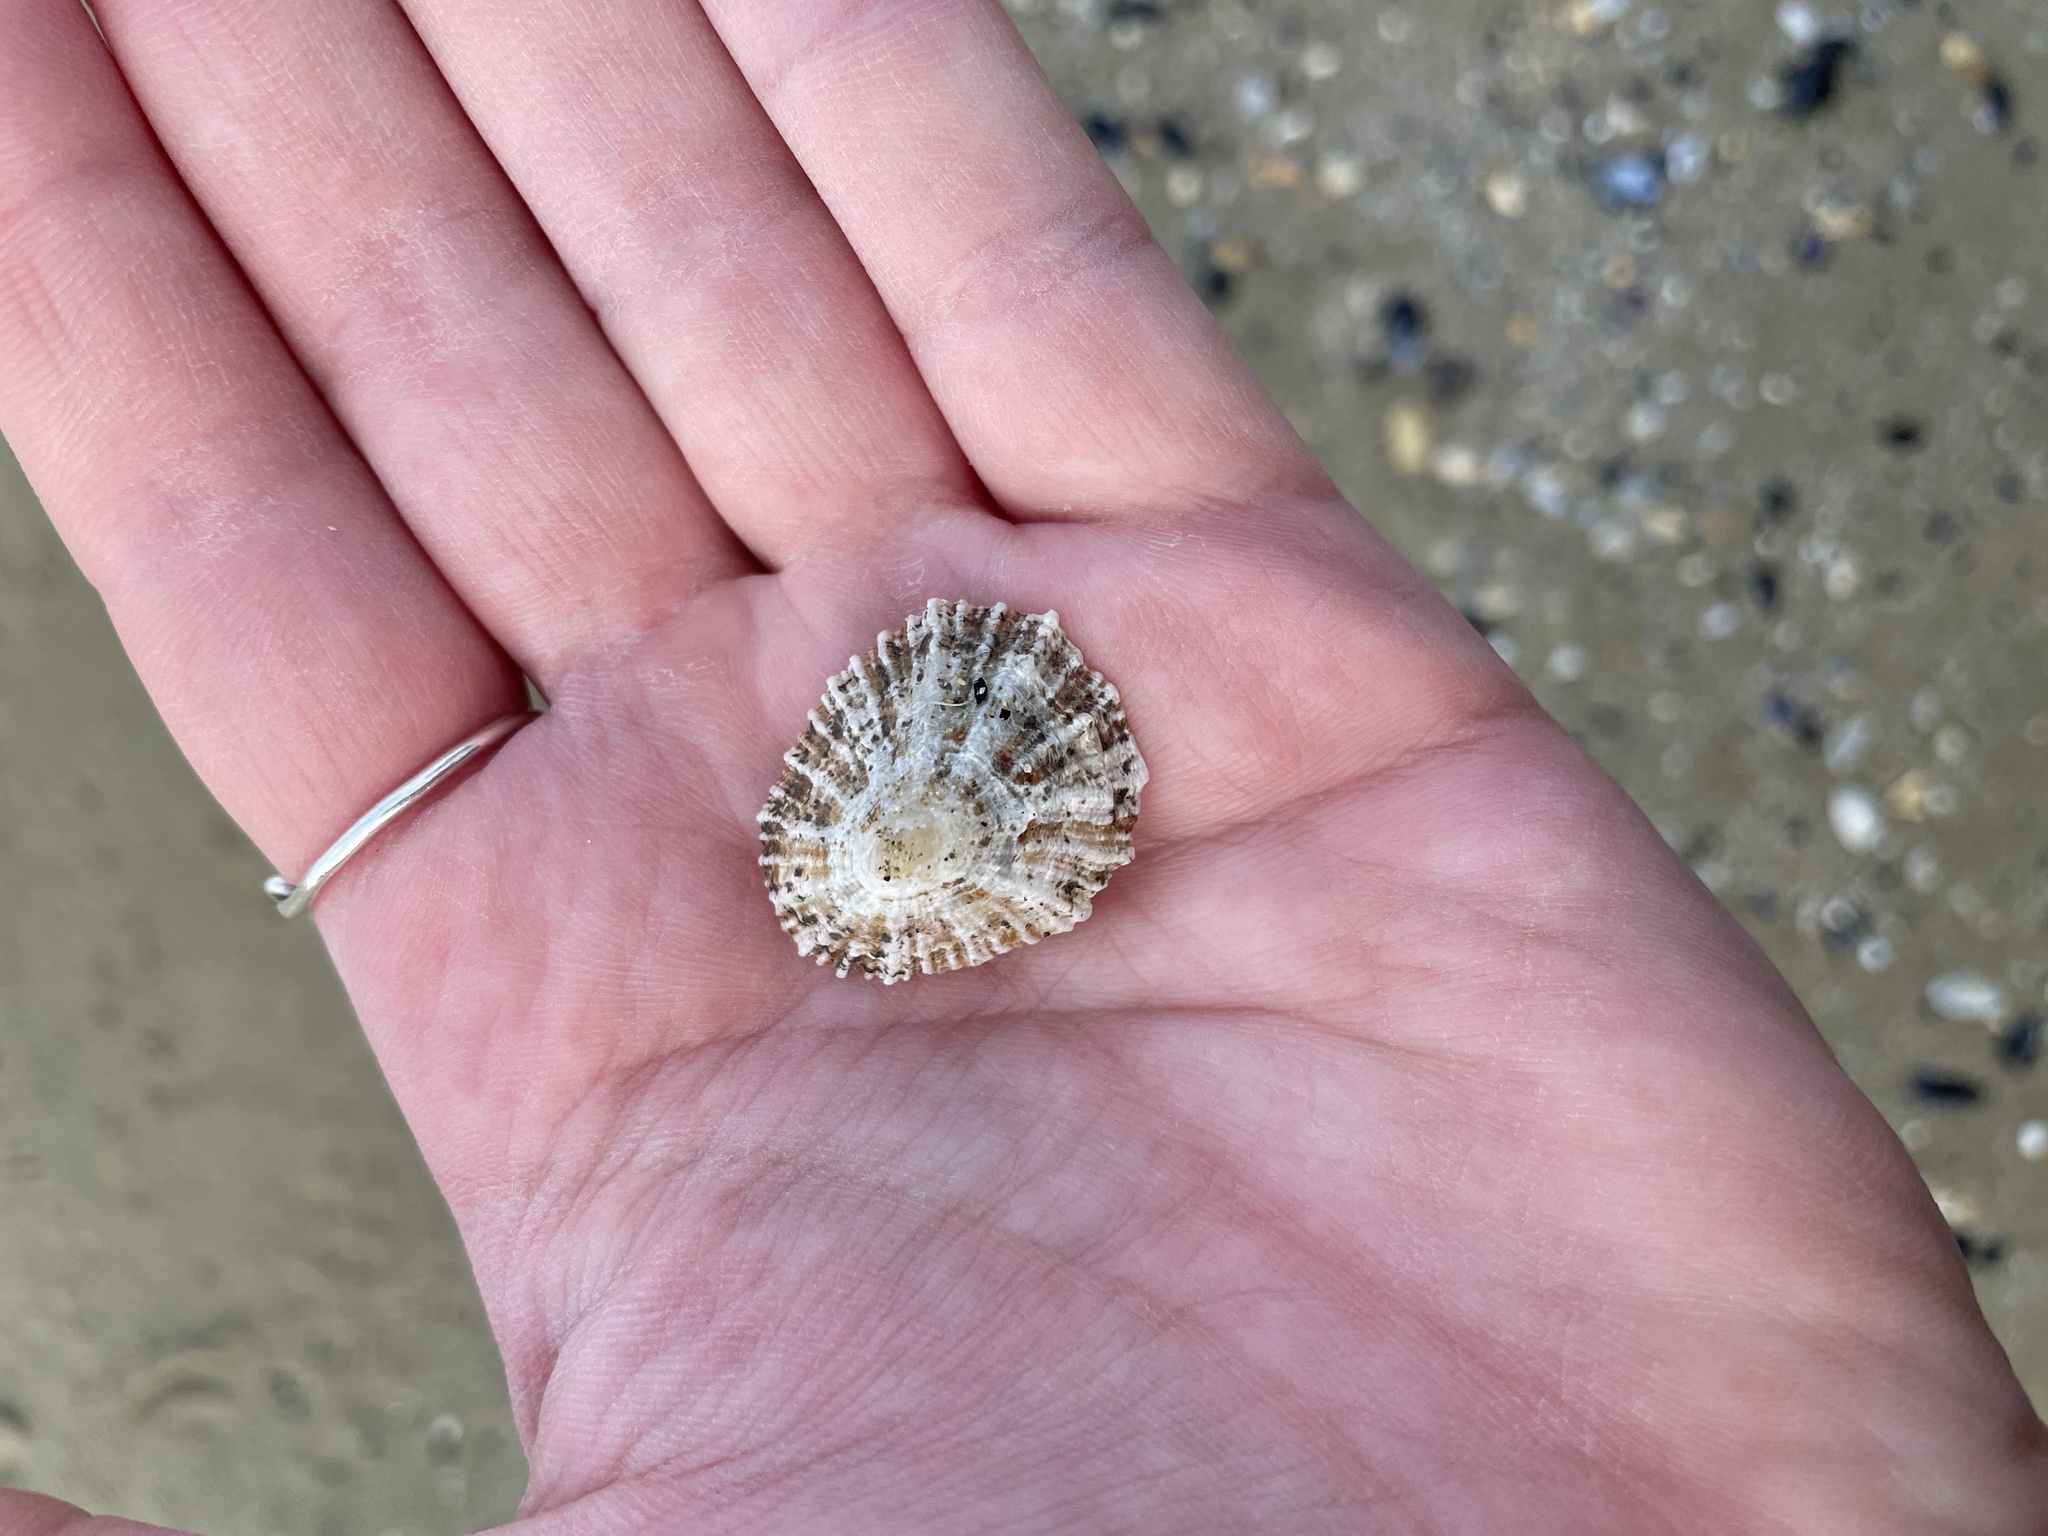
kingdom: Animalia
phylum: Mollusca
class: Gastropoda
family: Patellidae
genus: Patella
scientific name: Patella caerulea
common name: Mediterranean limpet
